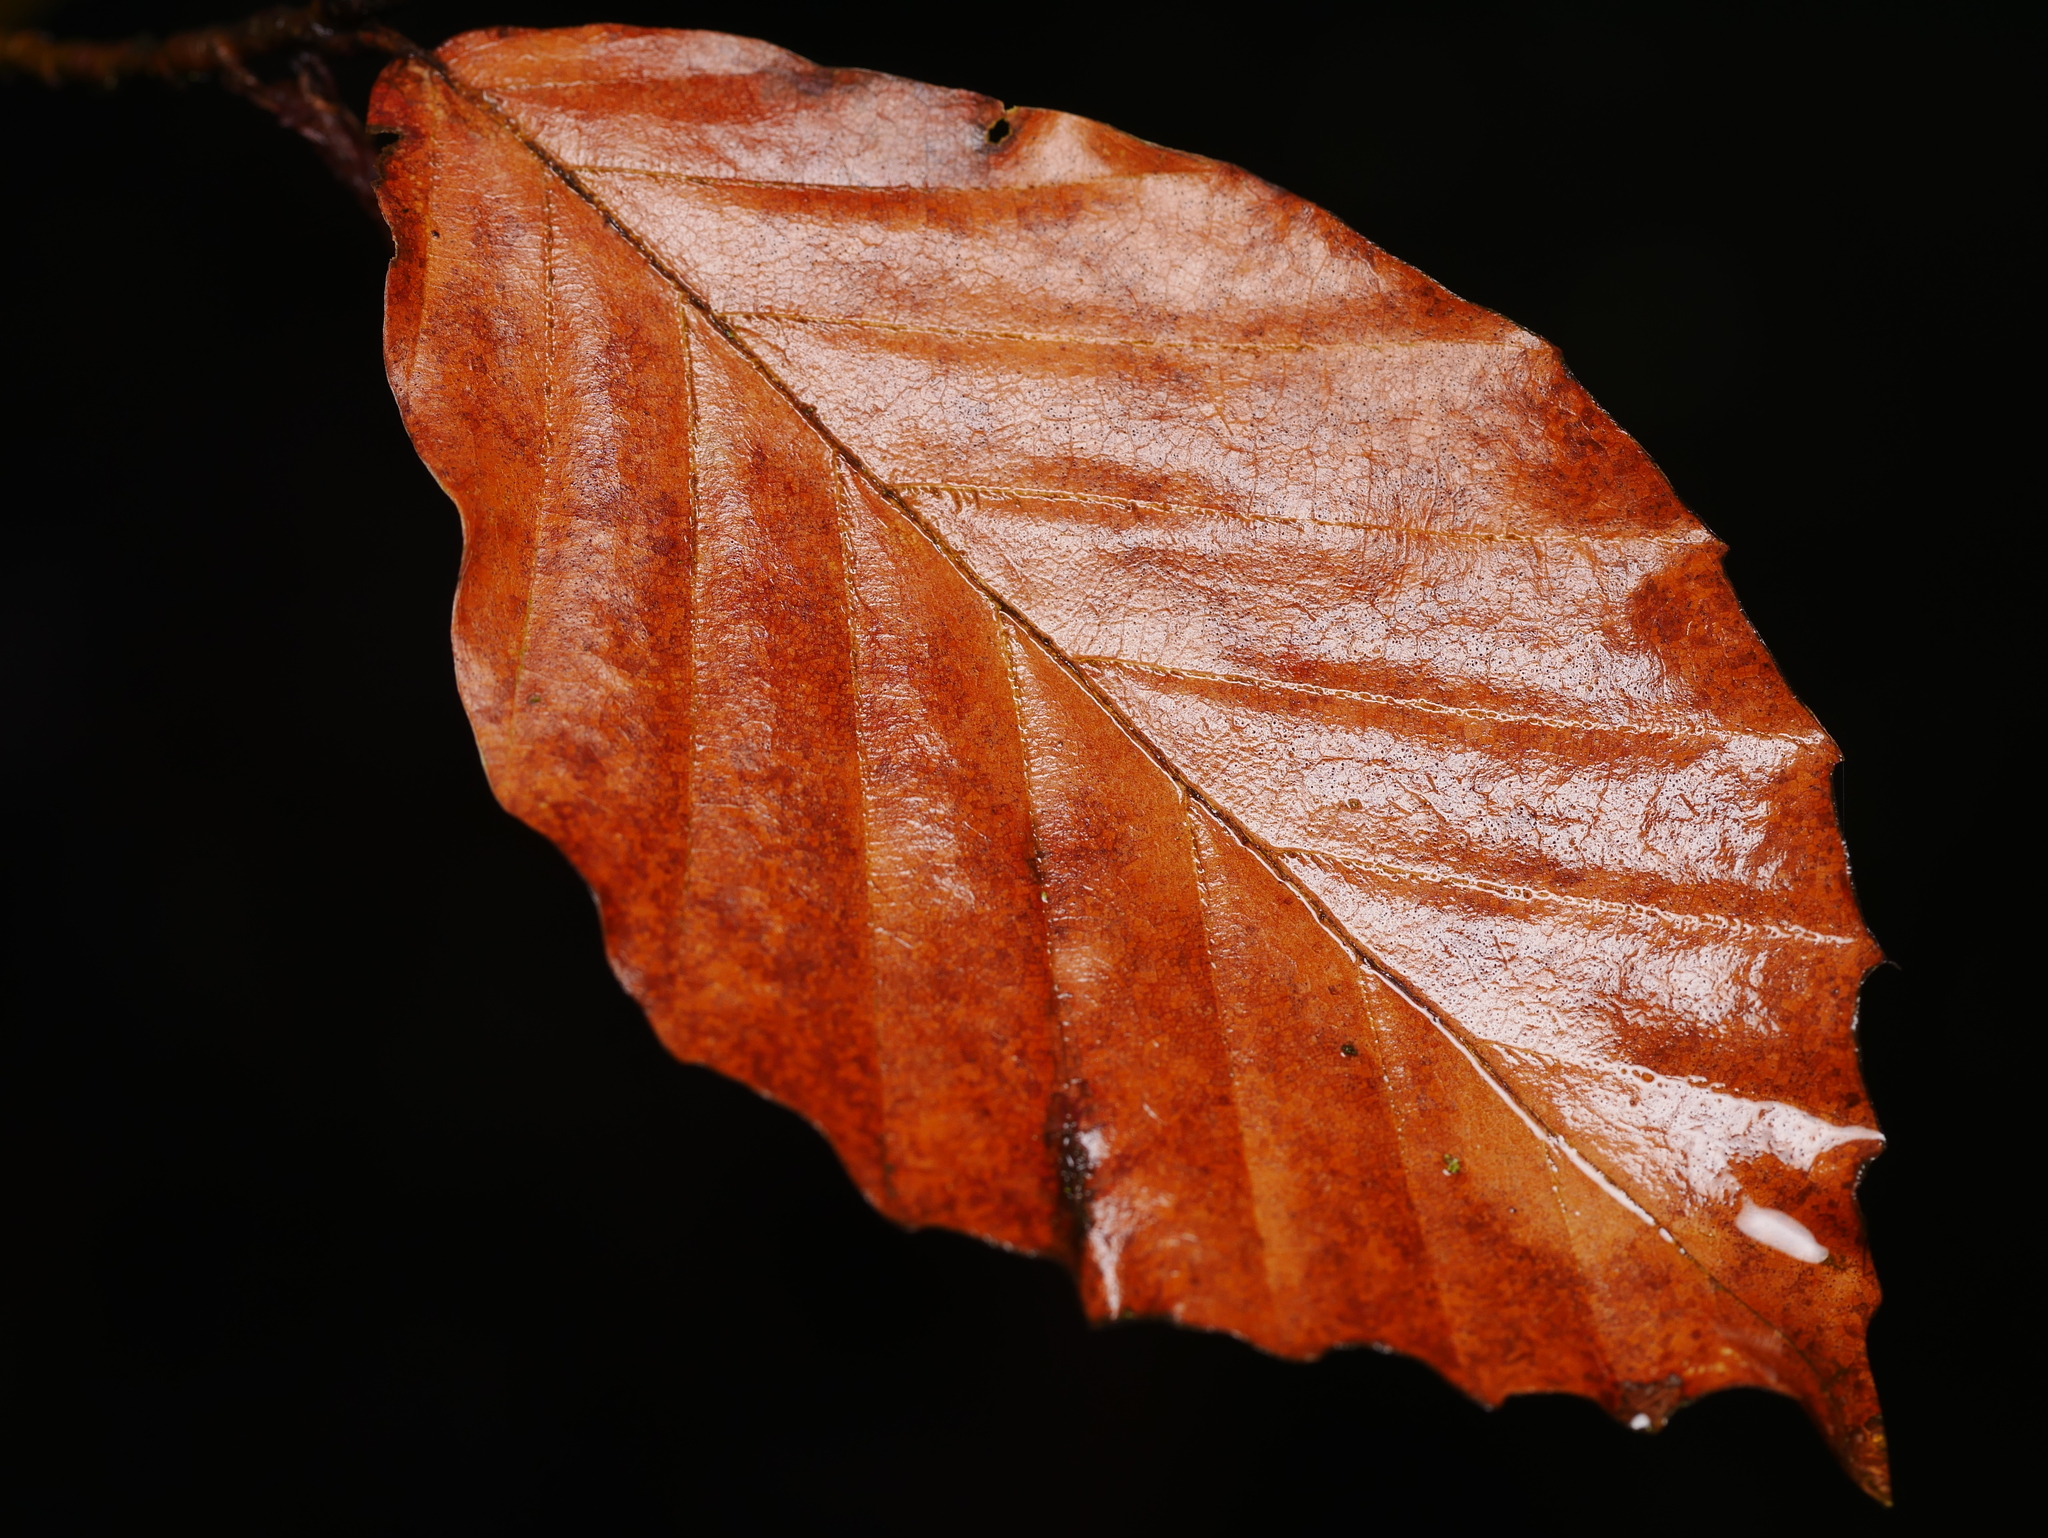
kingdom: Plantae
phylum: Tracheophyta
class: Magnoliopsida
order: Fagales
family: Fagaceae
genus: Fagus
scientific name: Fagus sylvatica
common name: Beech
